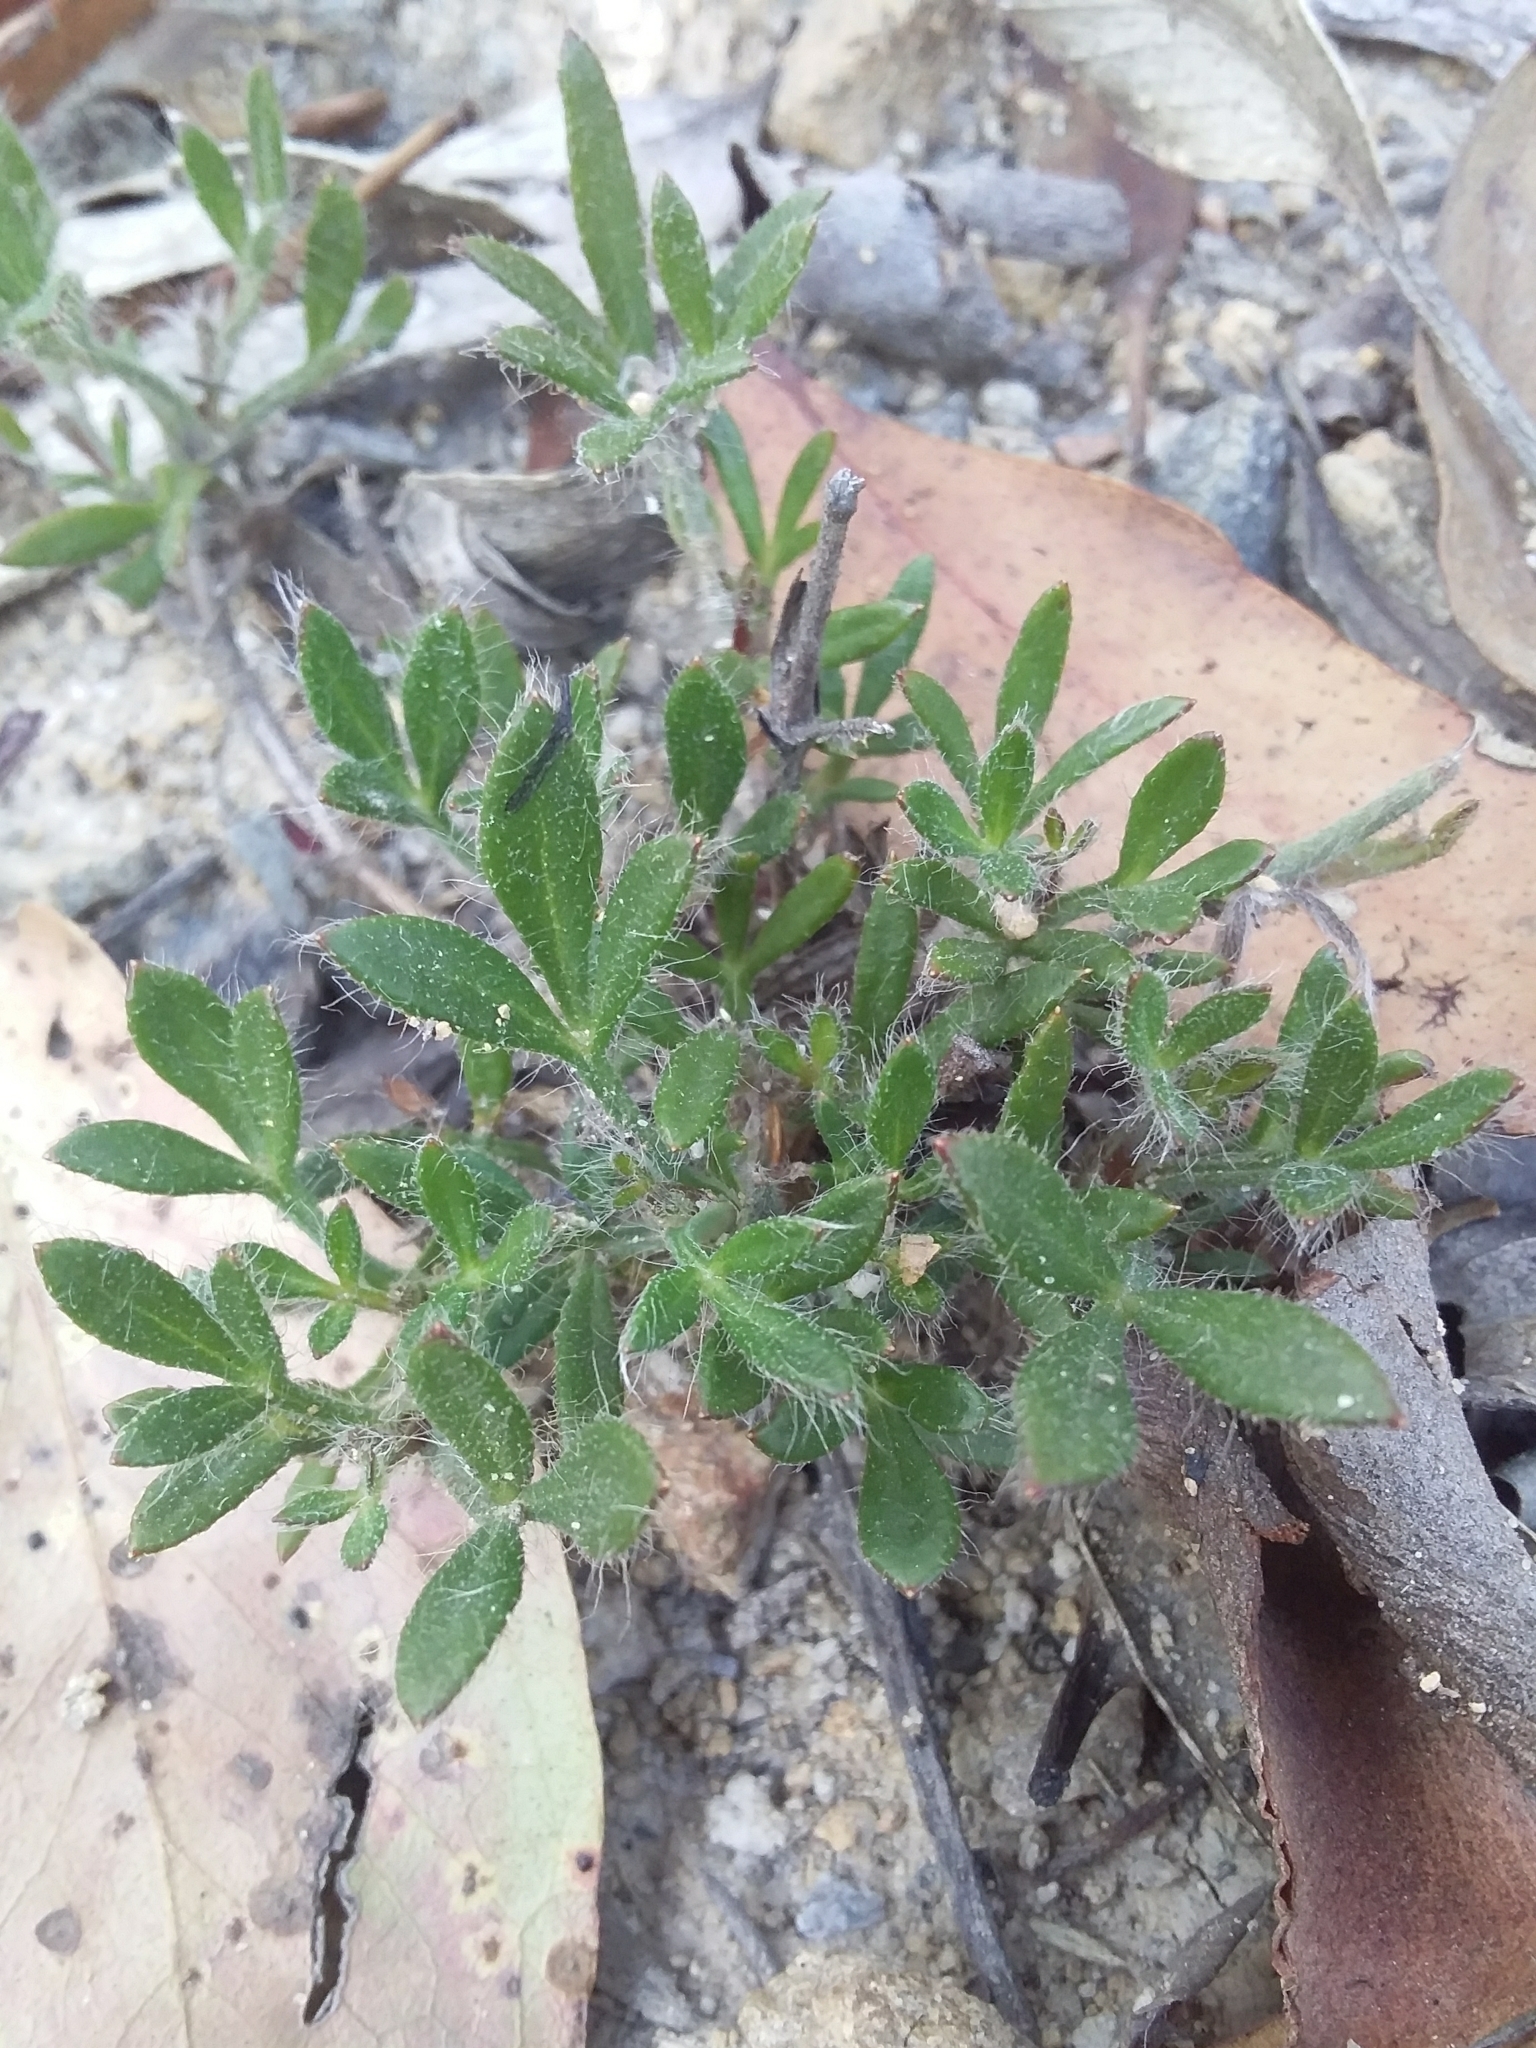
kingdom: Plantae
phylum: Tracheophyta
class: Magnoliopsida
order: Apiales
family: Apiaceae
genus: Xanthosia
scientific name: Xanthosia huegelii
